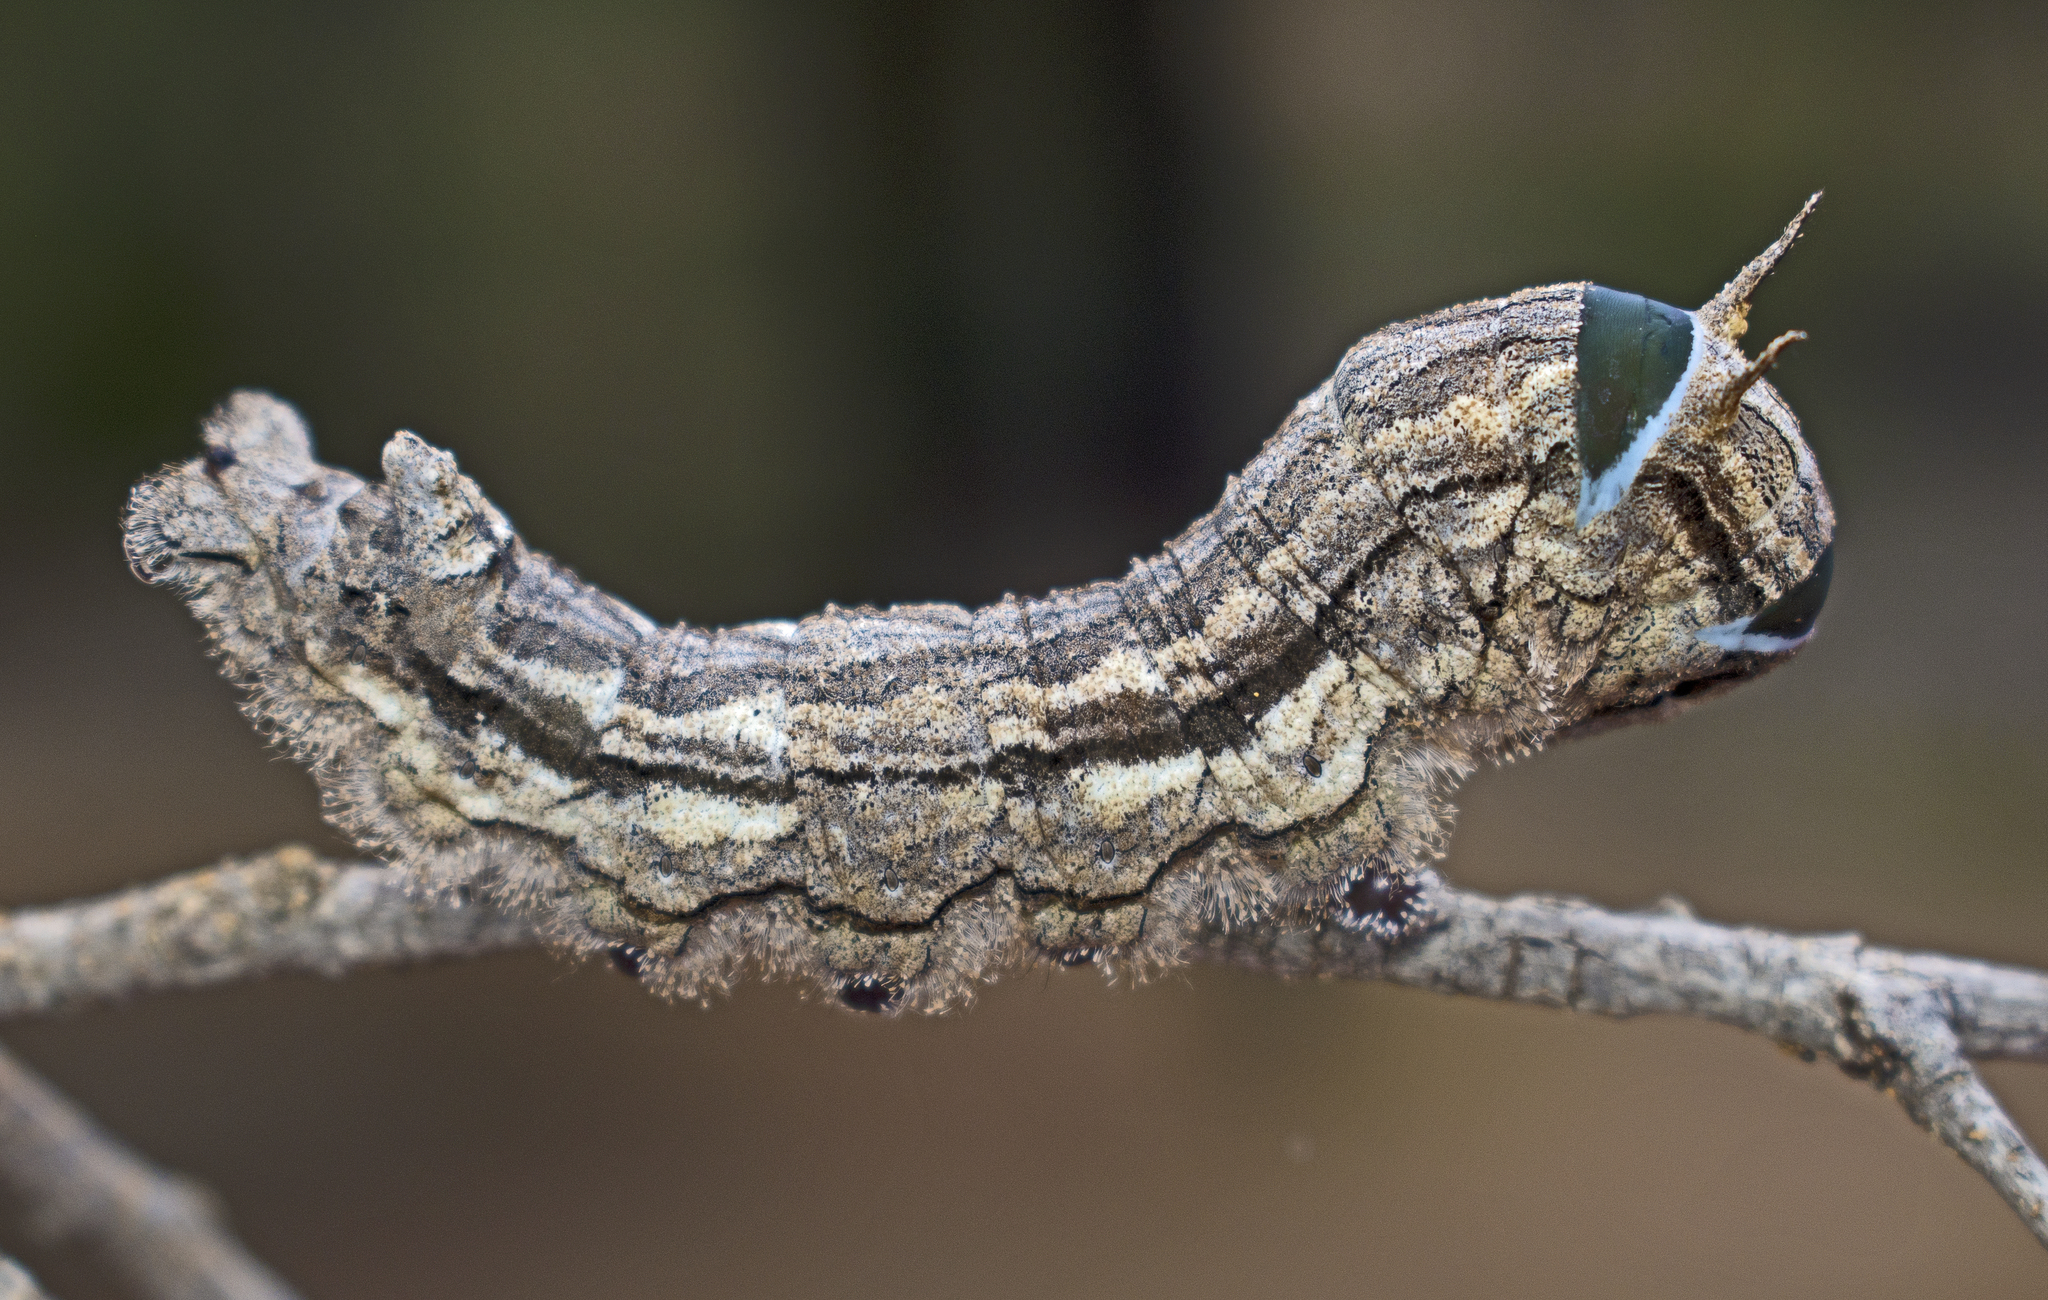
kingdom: Animalia
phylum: Arthropoda
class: Insecta
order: Lepidoptera
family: Lasiocampidae
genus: Entometa
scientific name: Entometa guttularis
